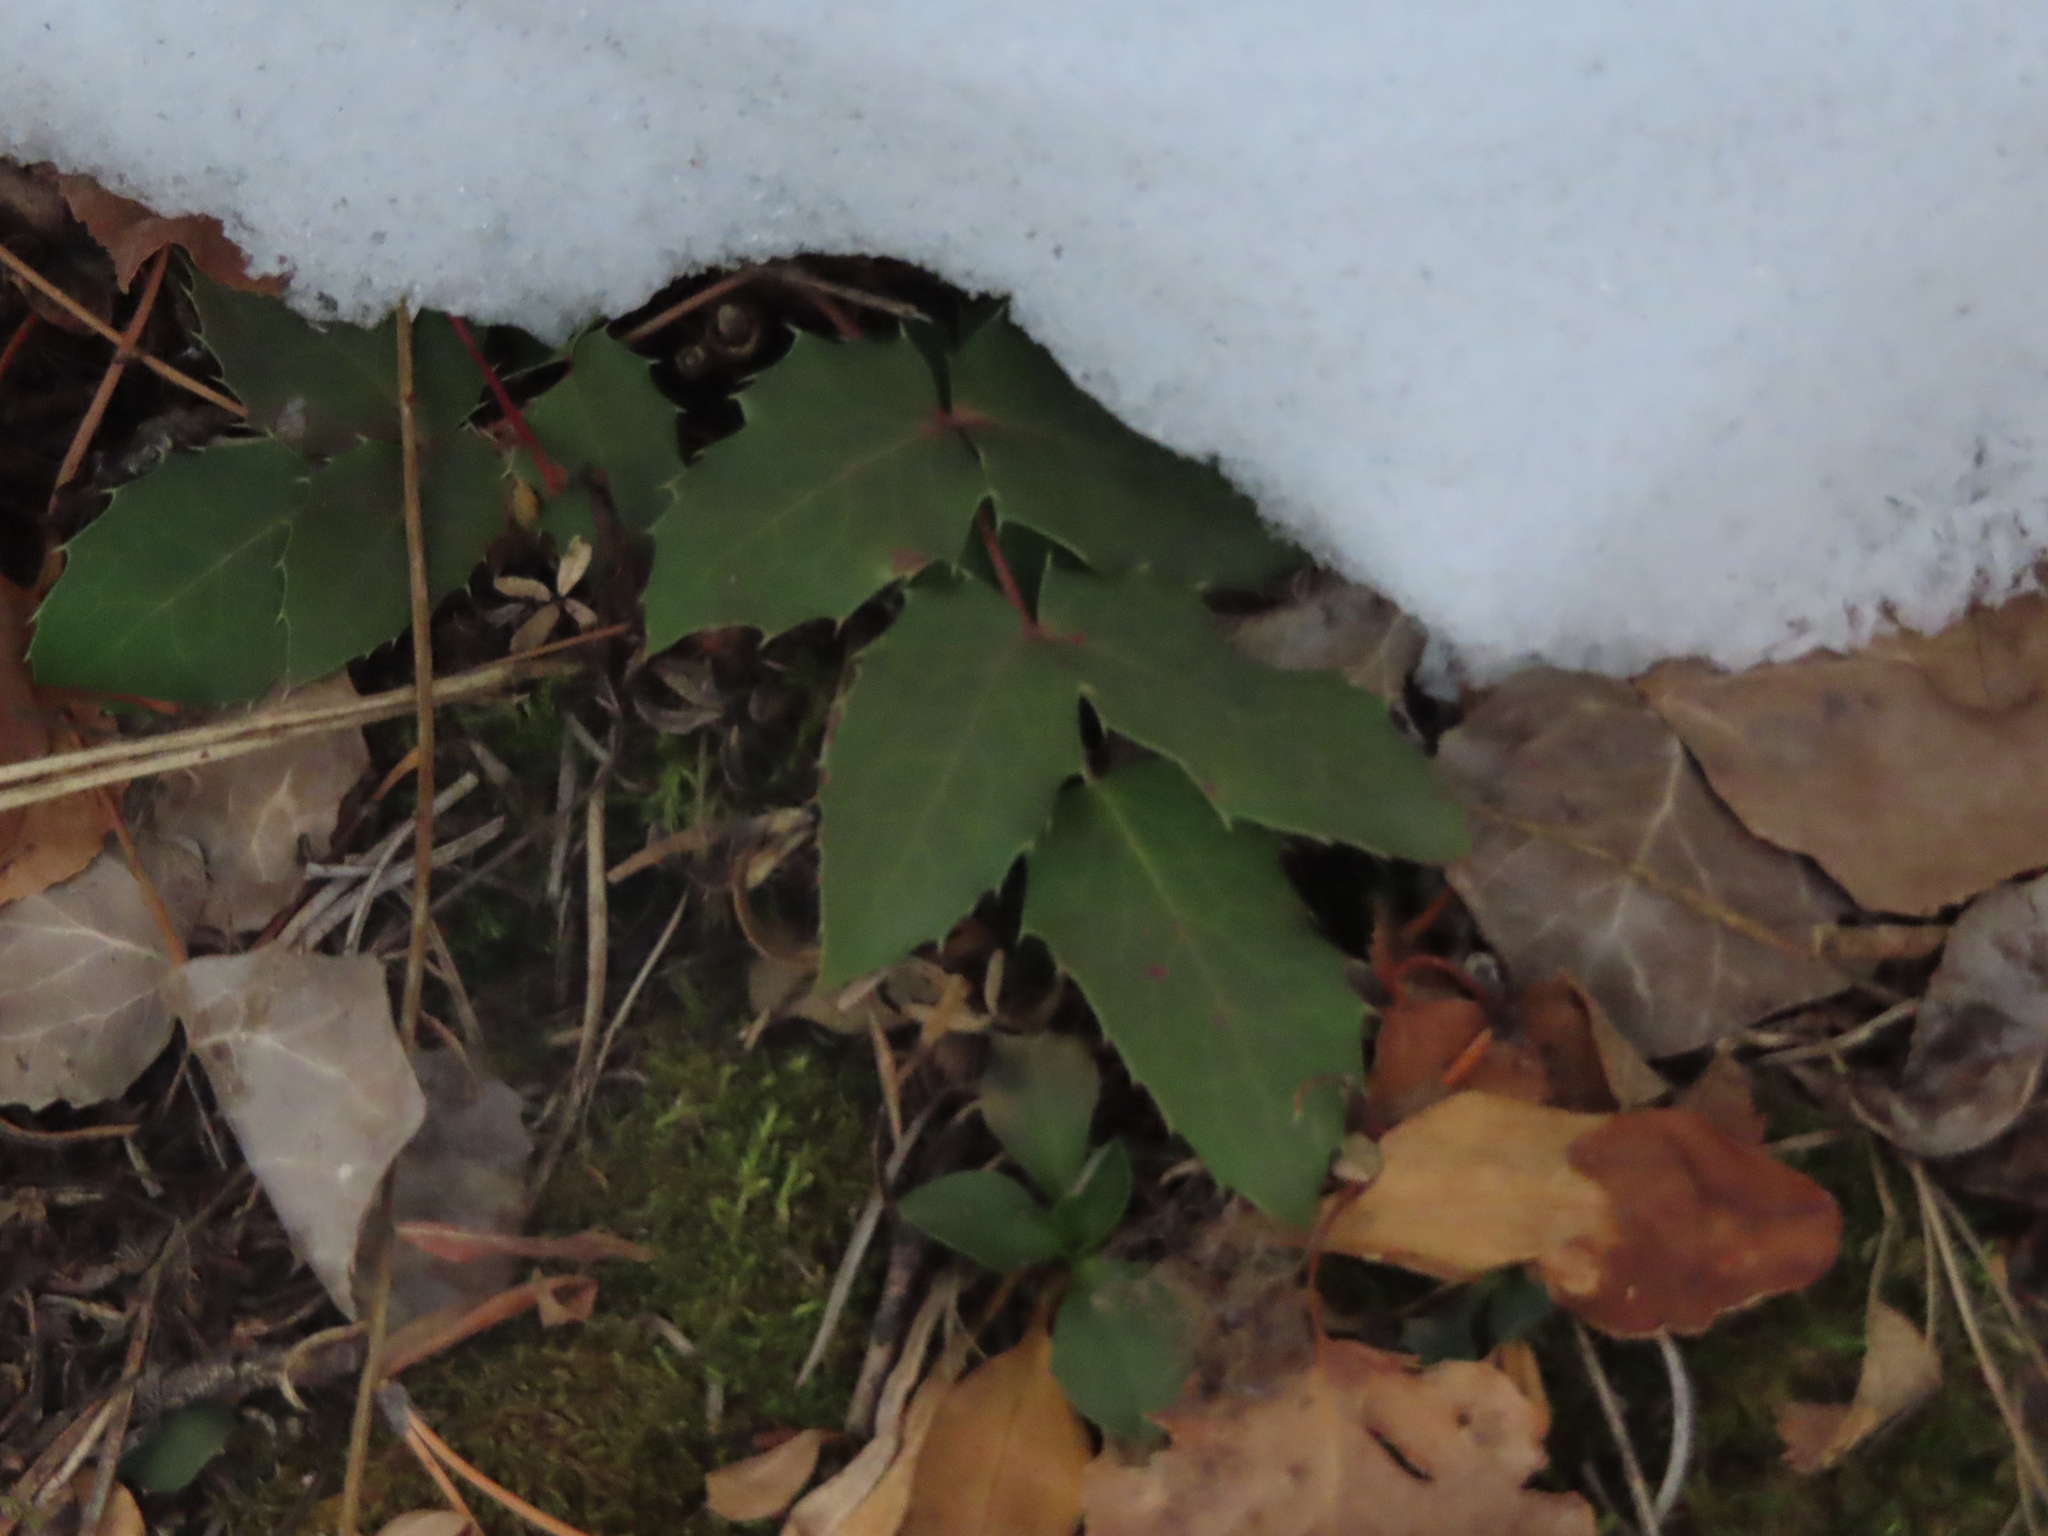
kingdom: Plantae
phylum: Tracheophyta
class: Magnoliopsida
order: Ranunculales
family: Berberidaceae
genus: Mahonia
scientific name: Mahonia repens
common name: Creeping oregon-grape
